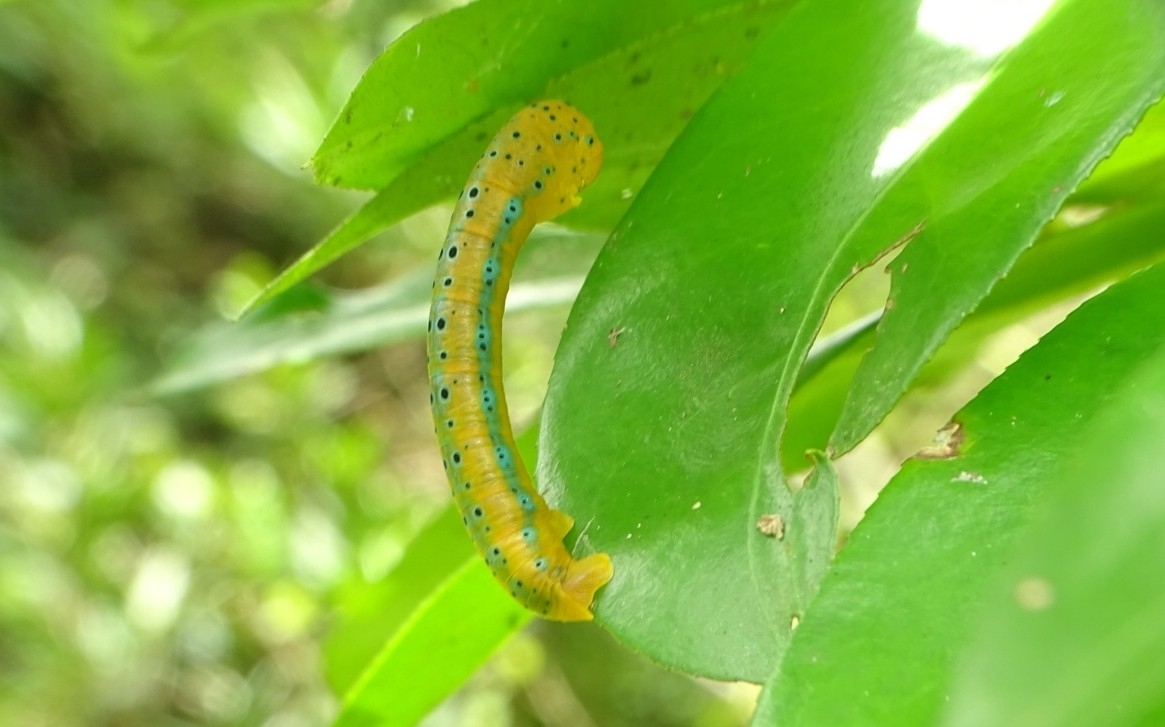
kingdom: Animalia
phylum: Arthropoda
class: Insecta
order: Lepidoptera
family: Geometridae
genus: Dysphania
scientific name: Dysphania percota
